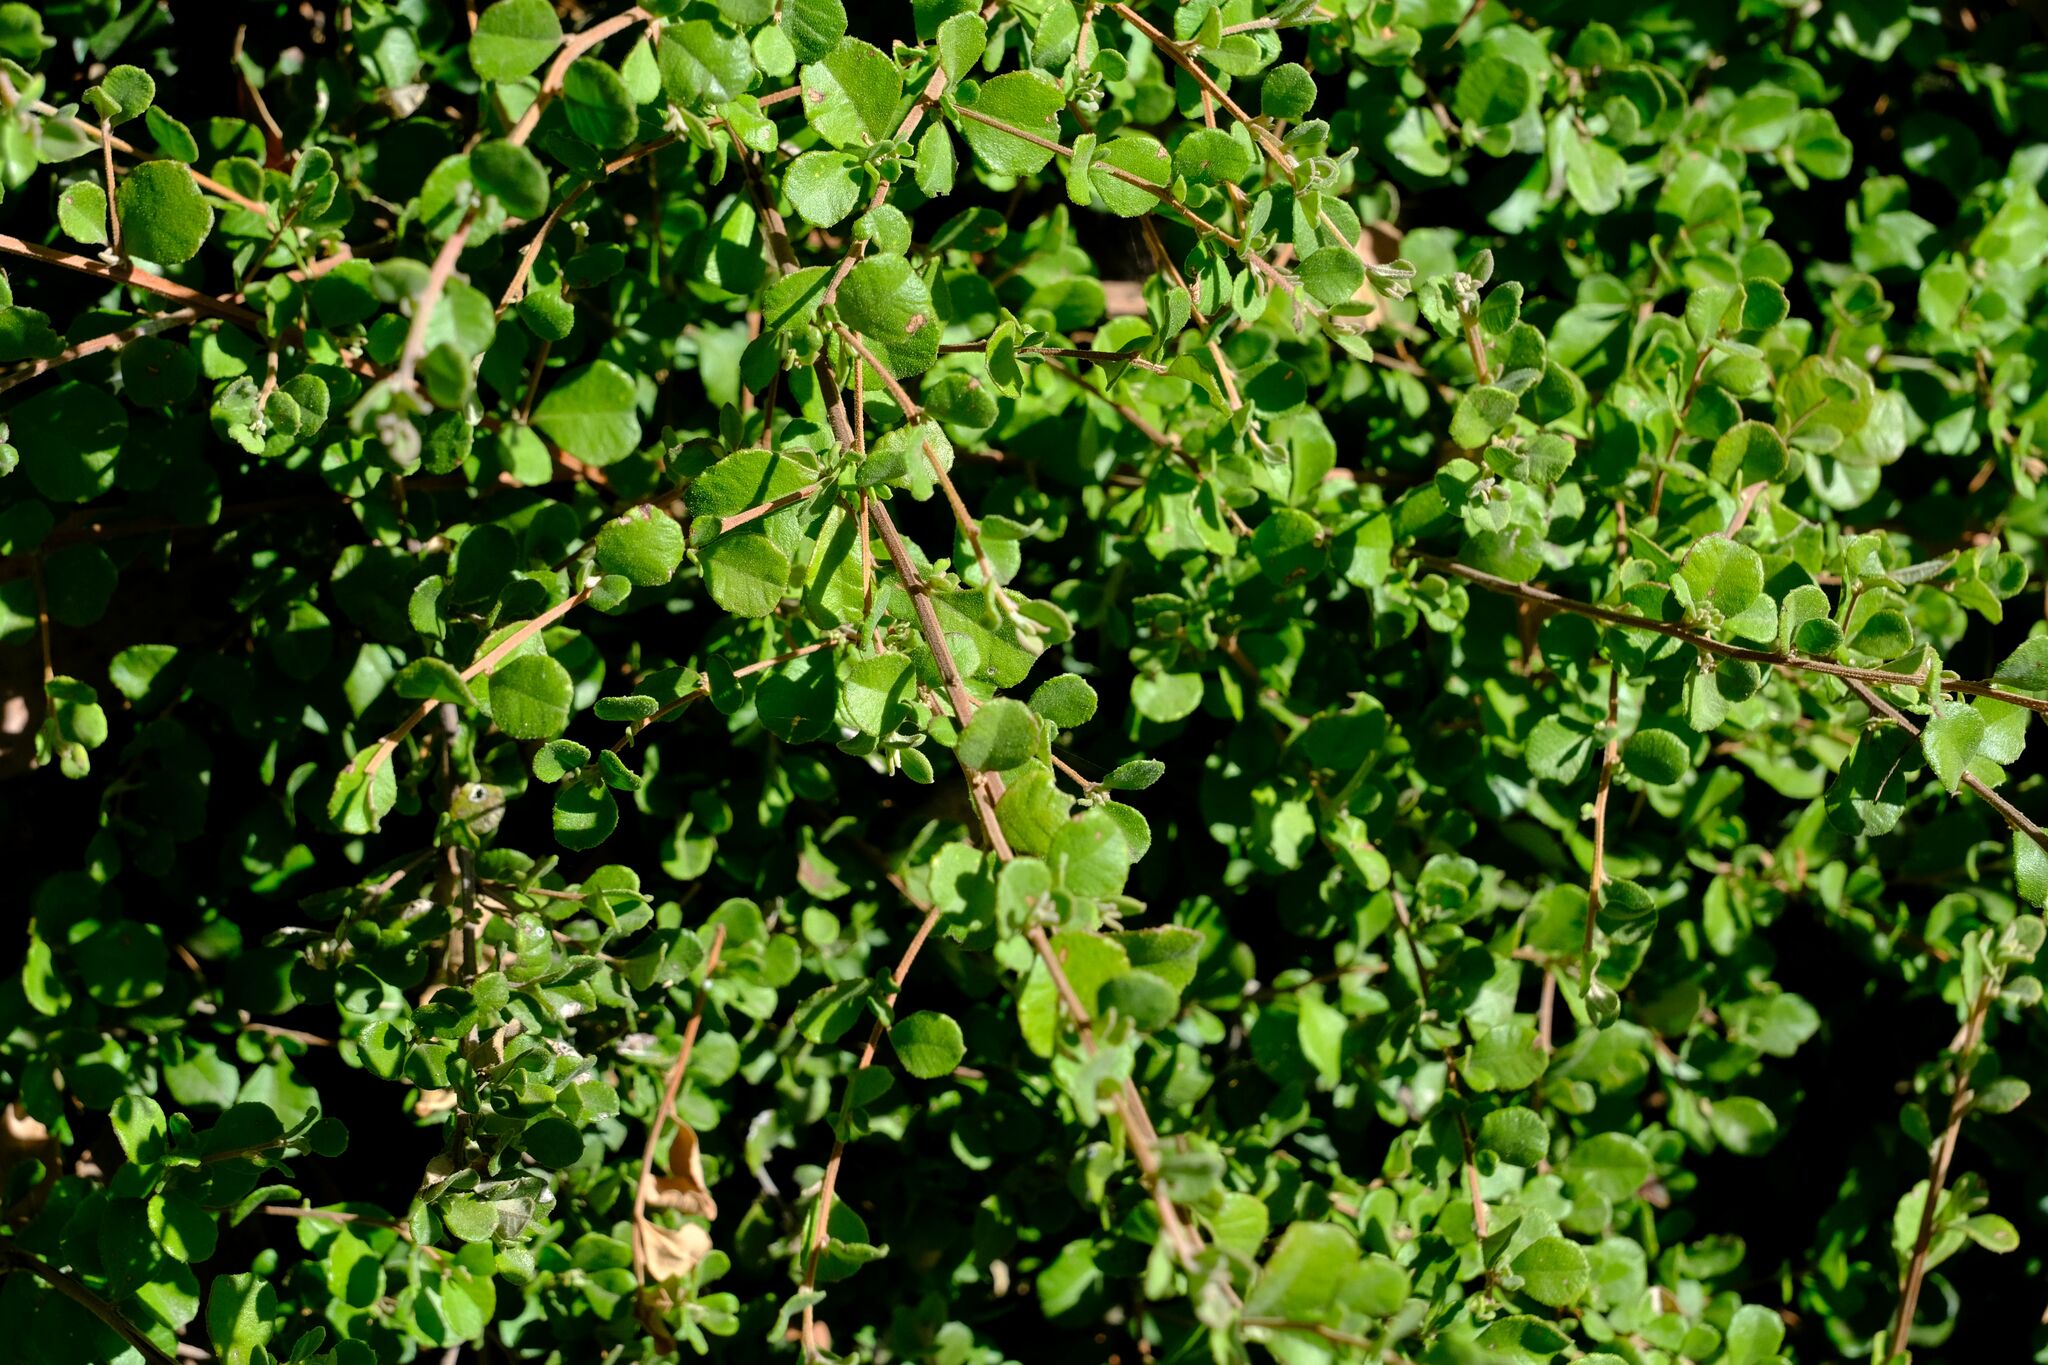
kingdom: Plantae
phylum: Tracheophyta
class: Magnoliopsida
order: Dilleniales
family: Dilleniaceae
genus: Hibbertia
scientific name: Hibbertia truncata
